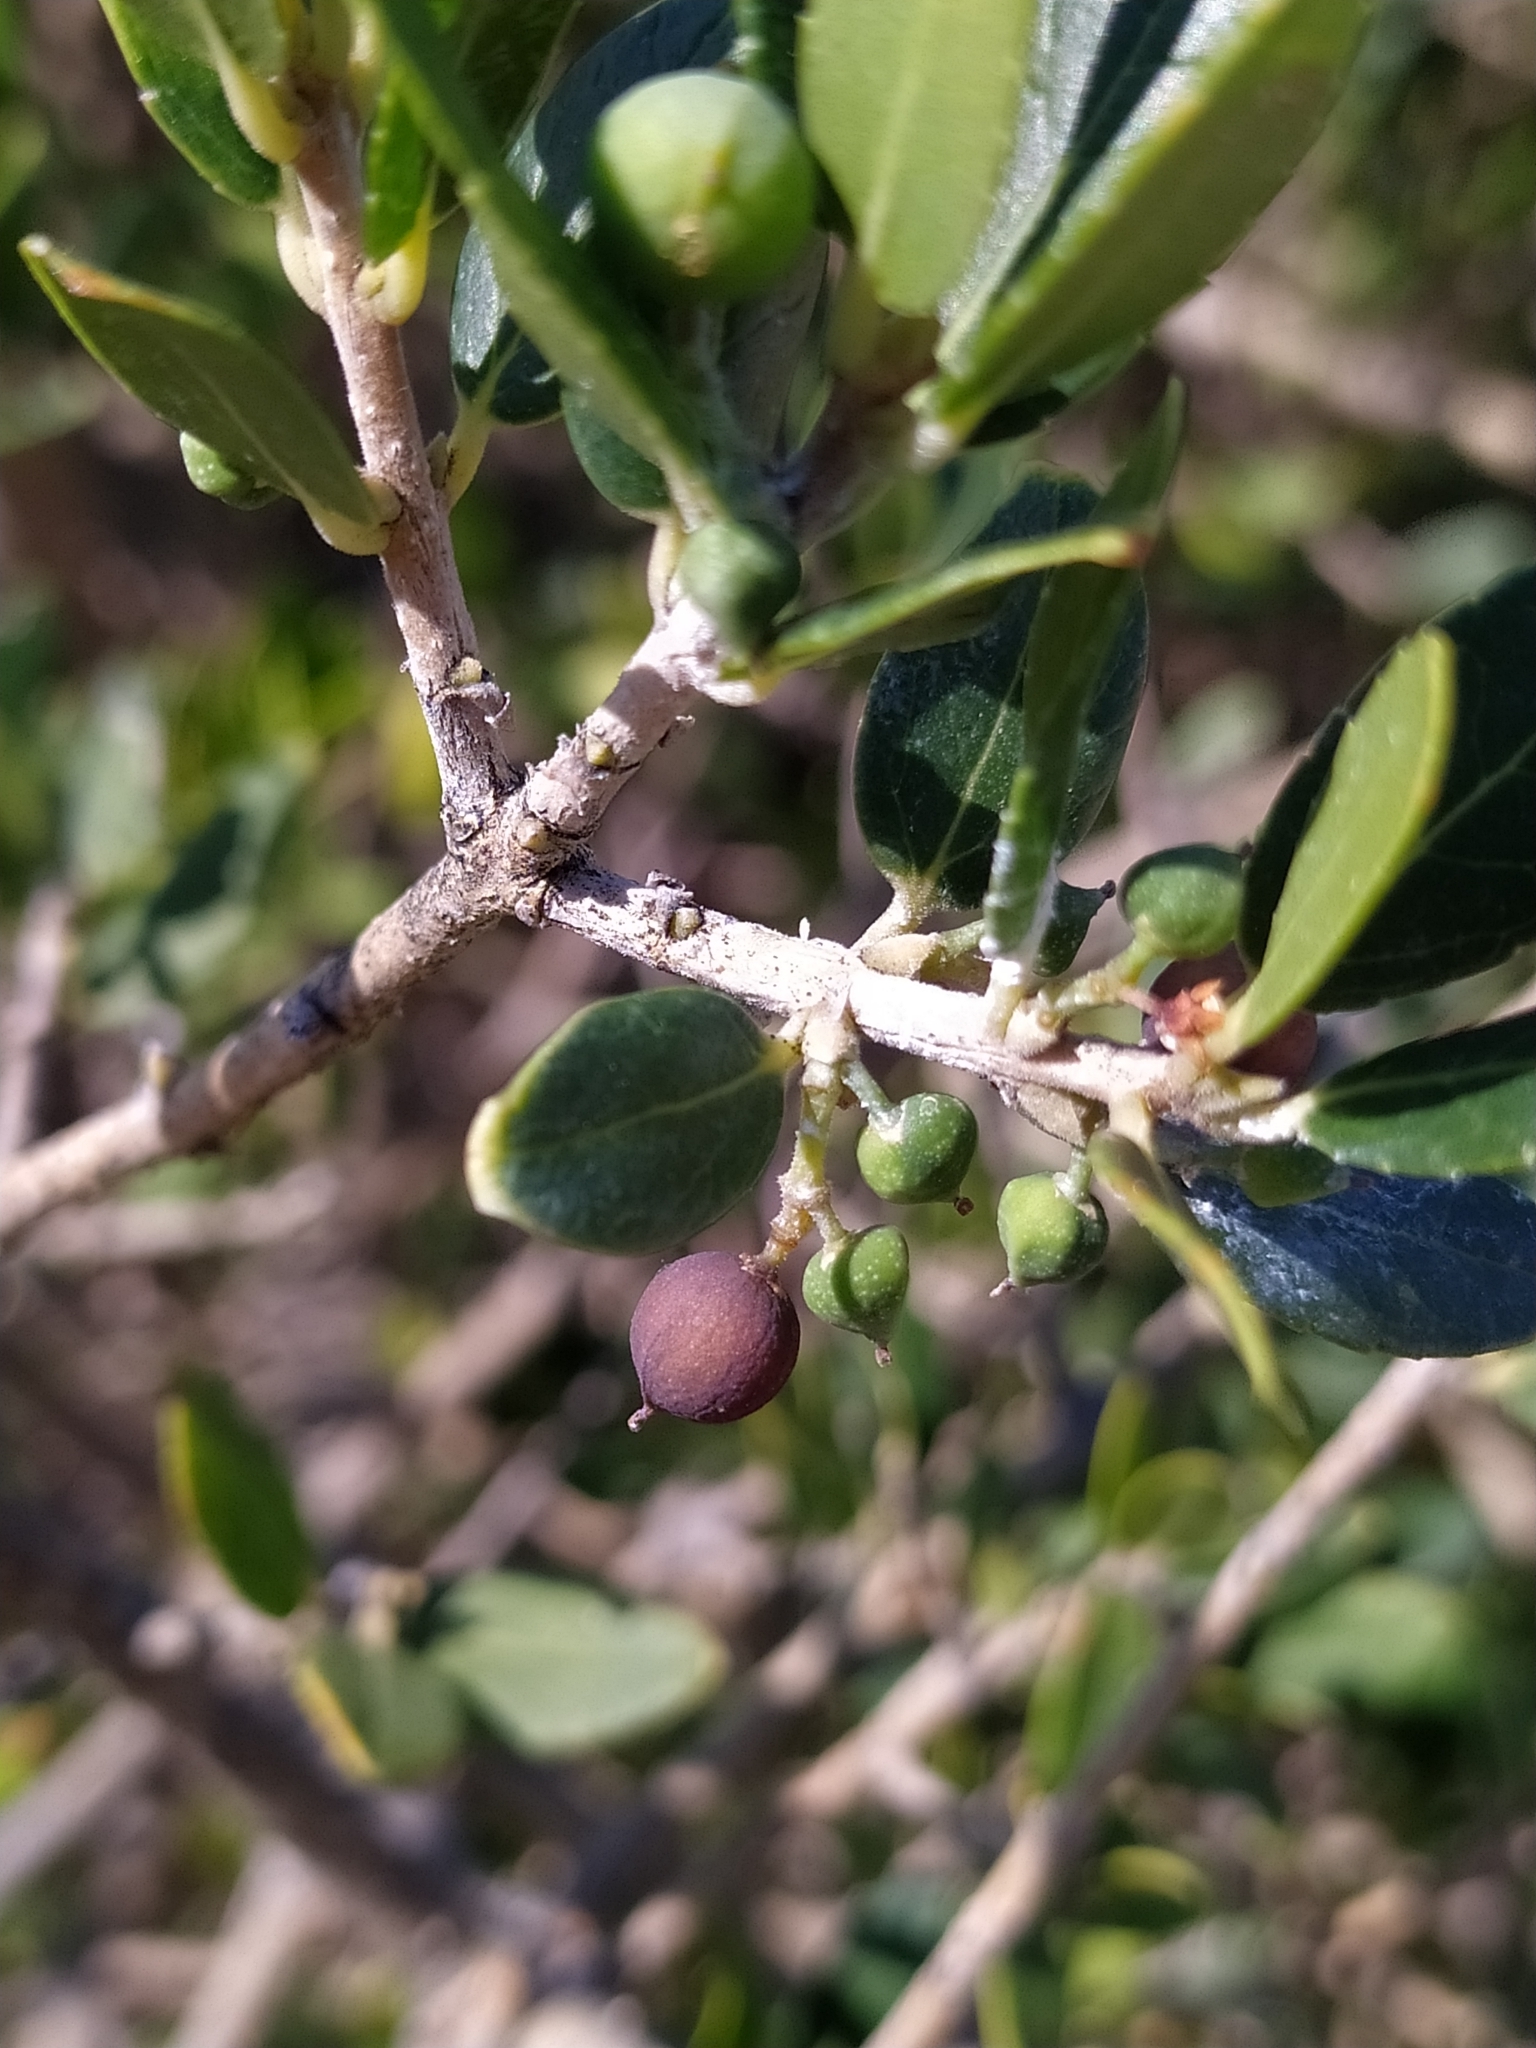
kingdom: Plantae
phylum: Tracheophyta
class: Magnoliopsida
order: Lamiales
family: Oleaceae
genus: Phillyrea
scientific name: Phillyrea latifolia
